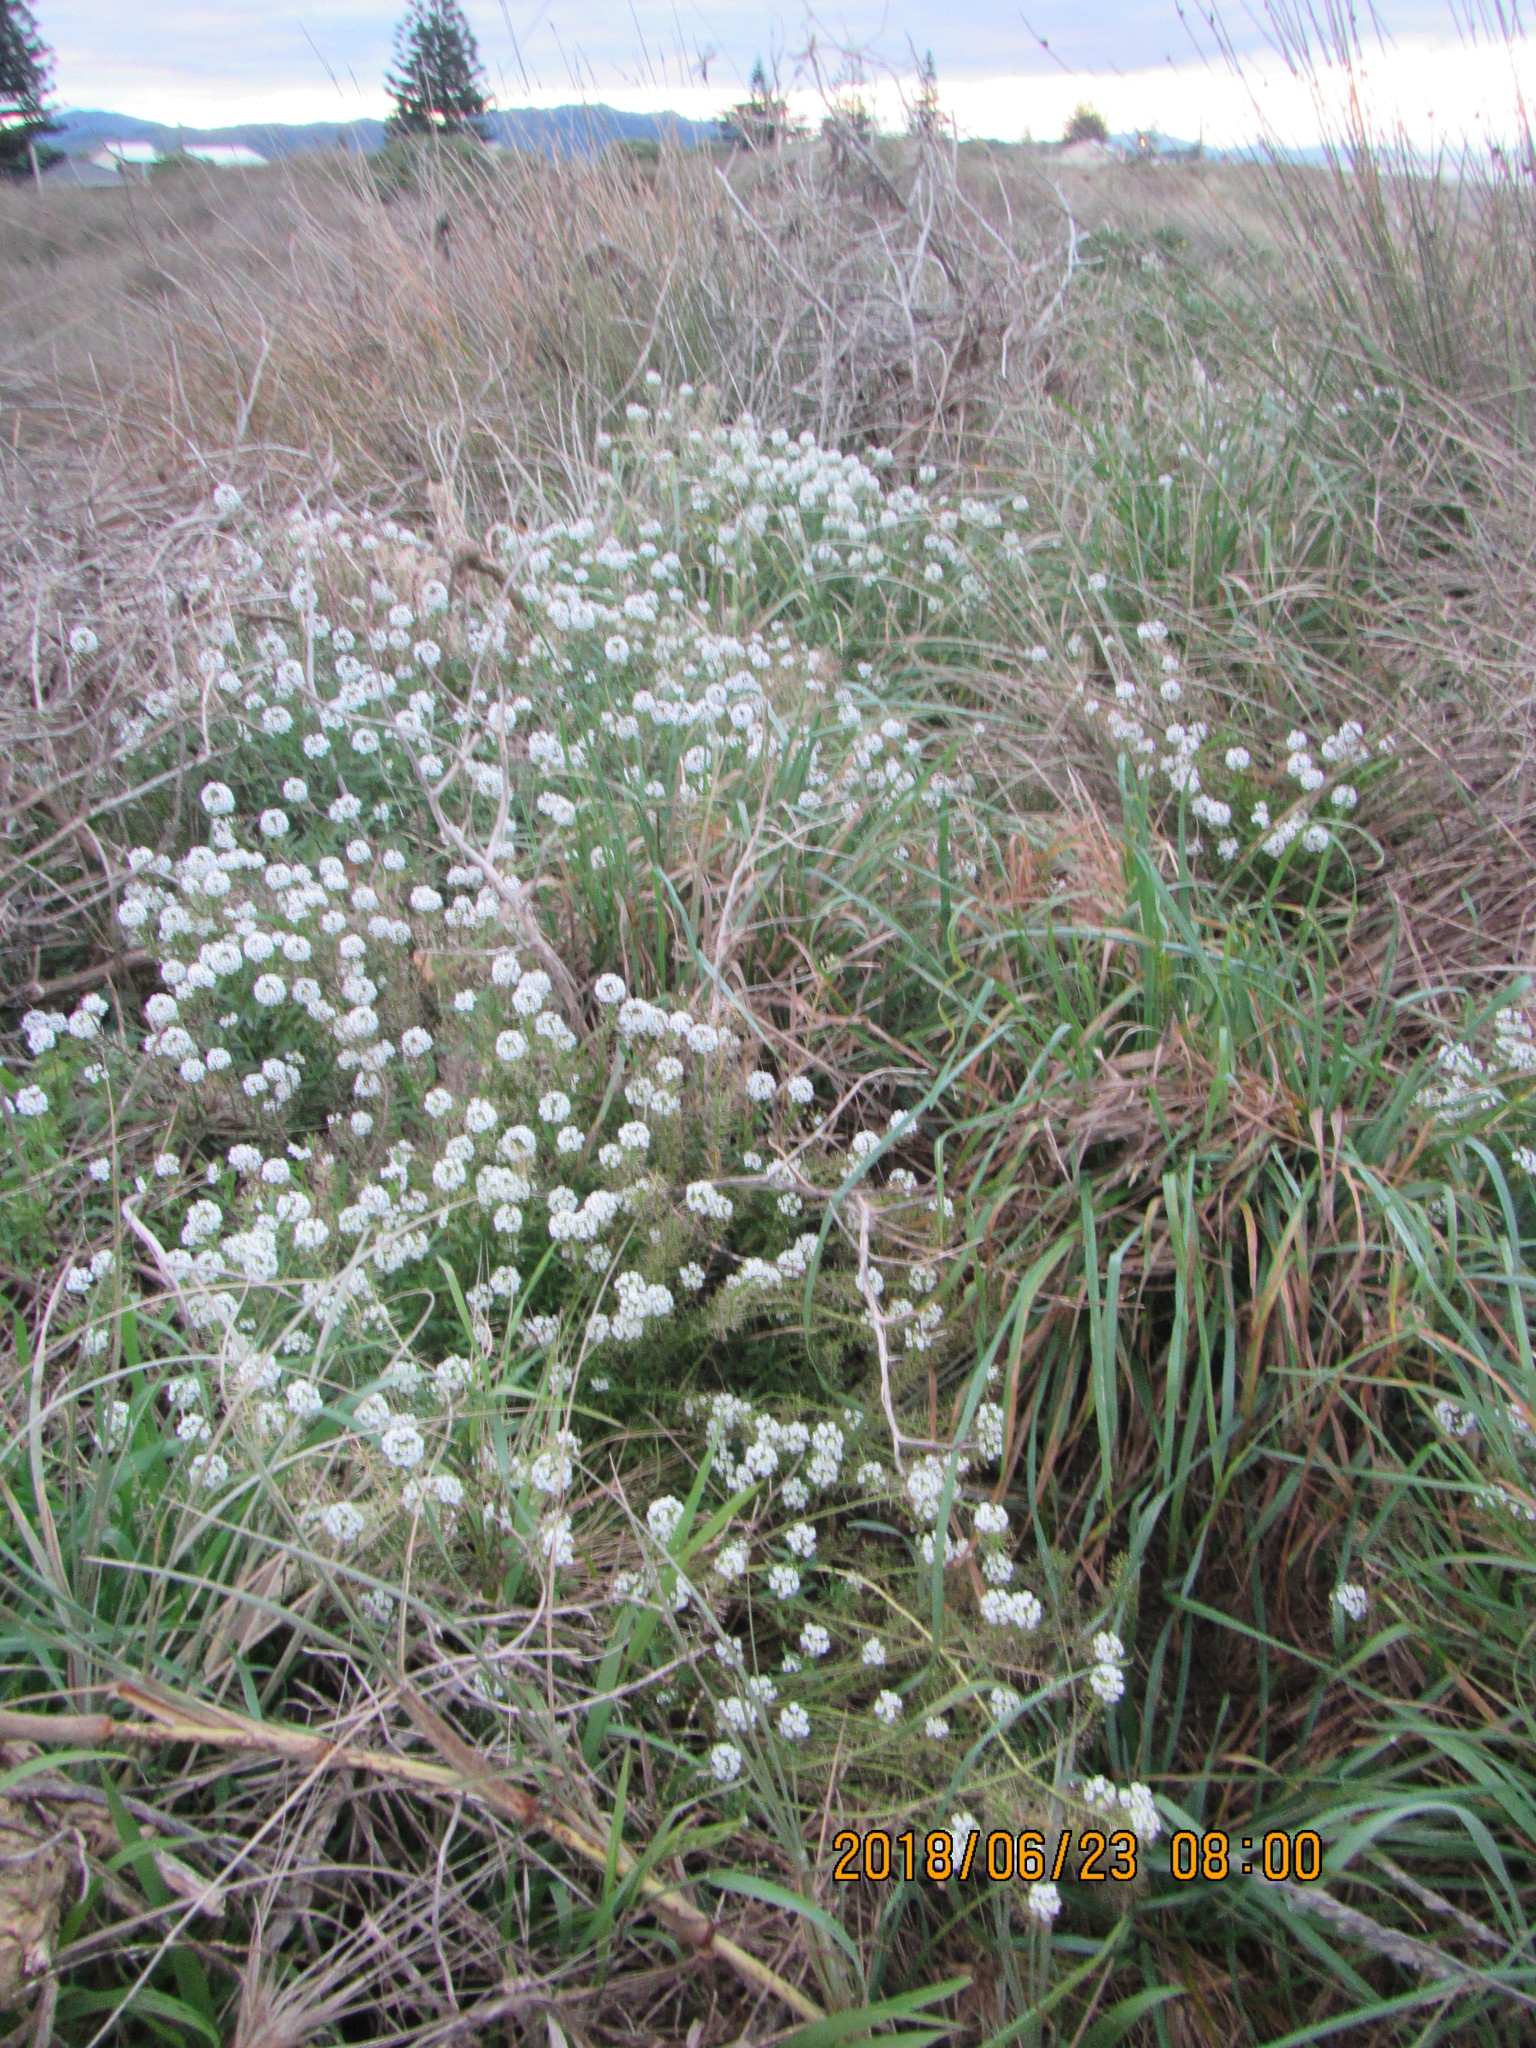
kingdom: Plantae
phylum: Tracheophyta
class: Magnoliopsida
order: Brassicales
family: Brassicaceae
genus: Lobularia
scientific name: Lobularia maritima
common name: Sweet alison
